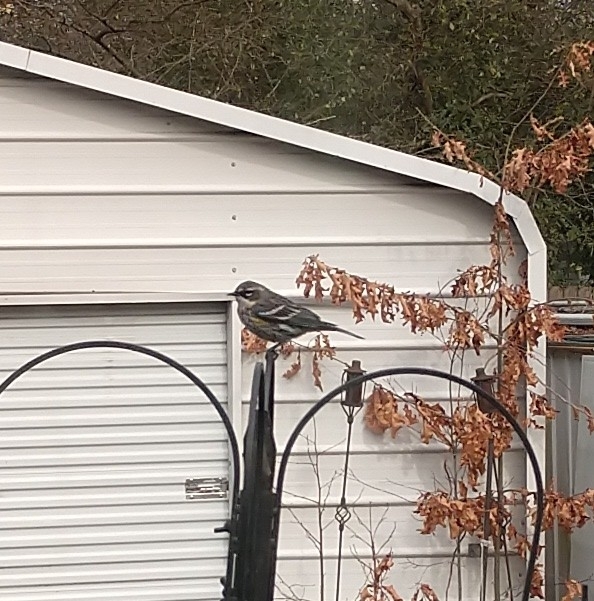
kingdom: Animalia
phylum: Chordata
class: Aves
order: Passeriformes
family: Parulidae
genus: Setophaga
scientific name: Setophaga coronata
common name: Myrtle warbler
